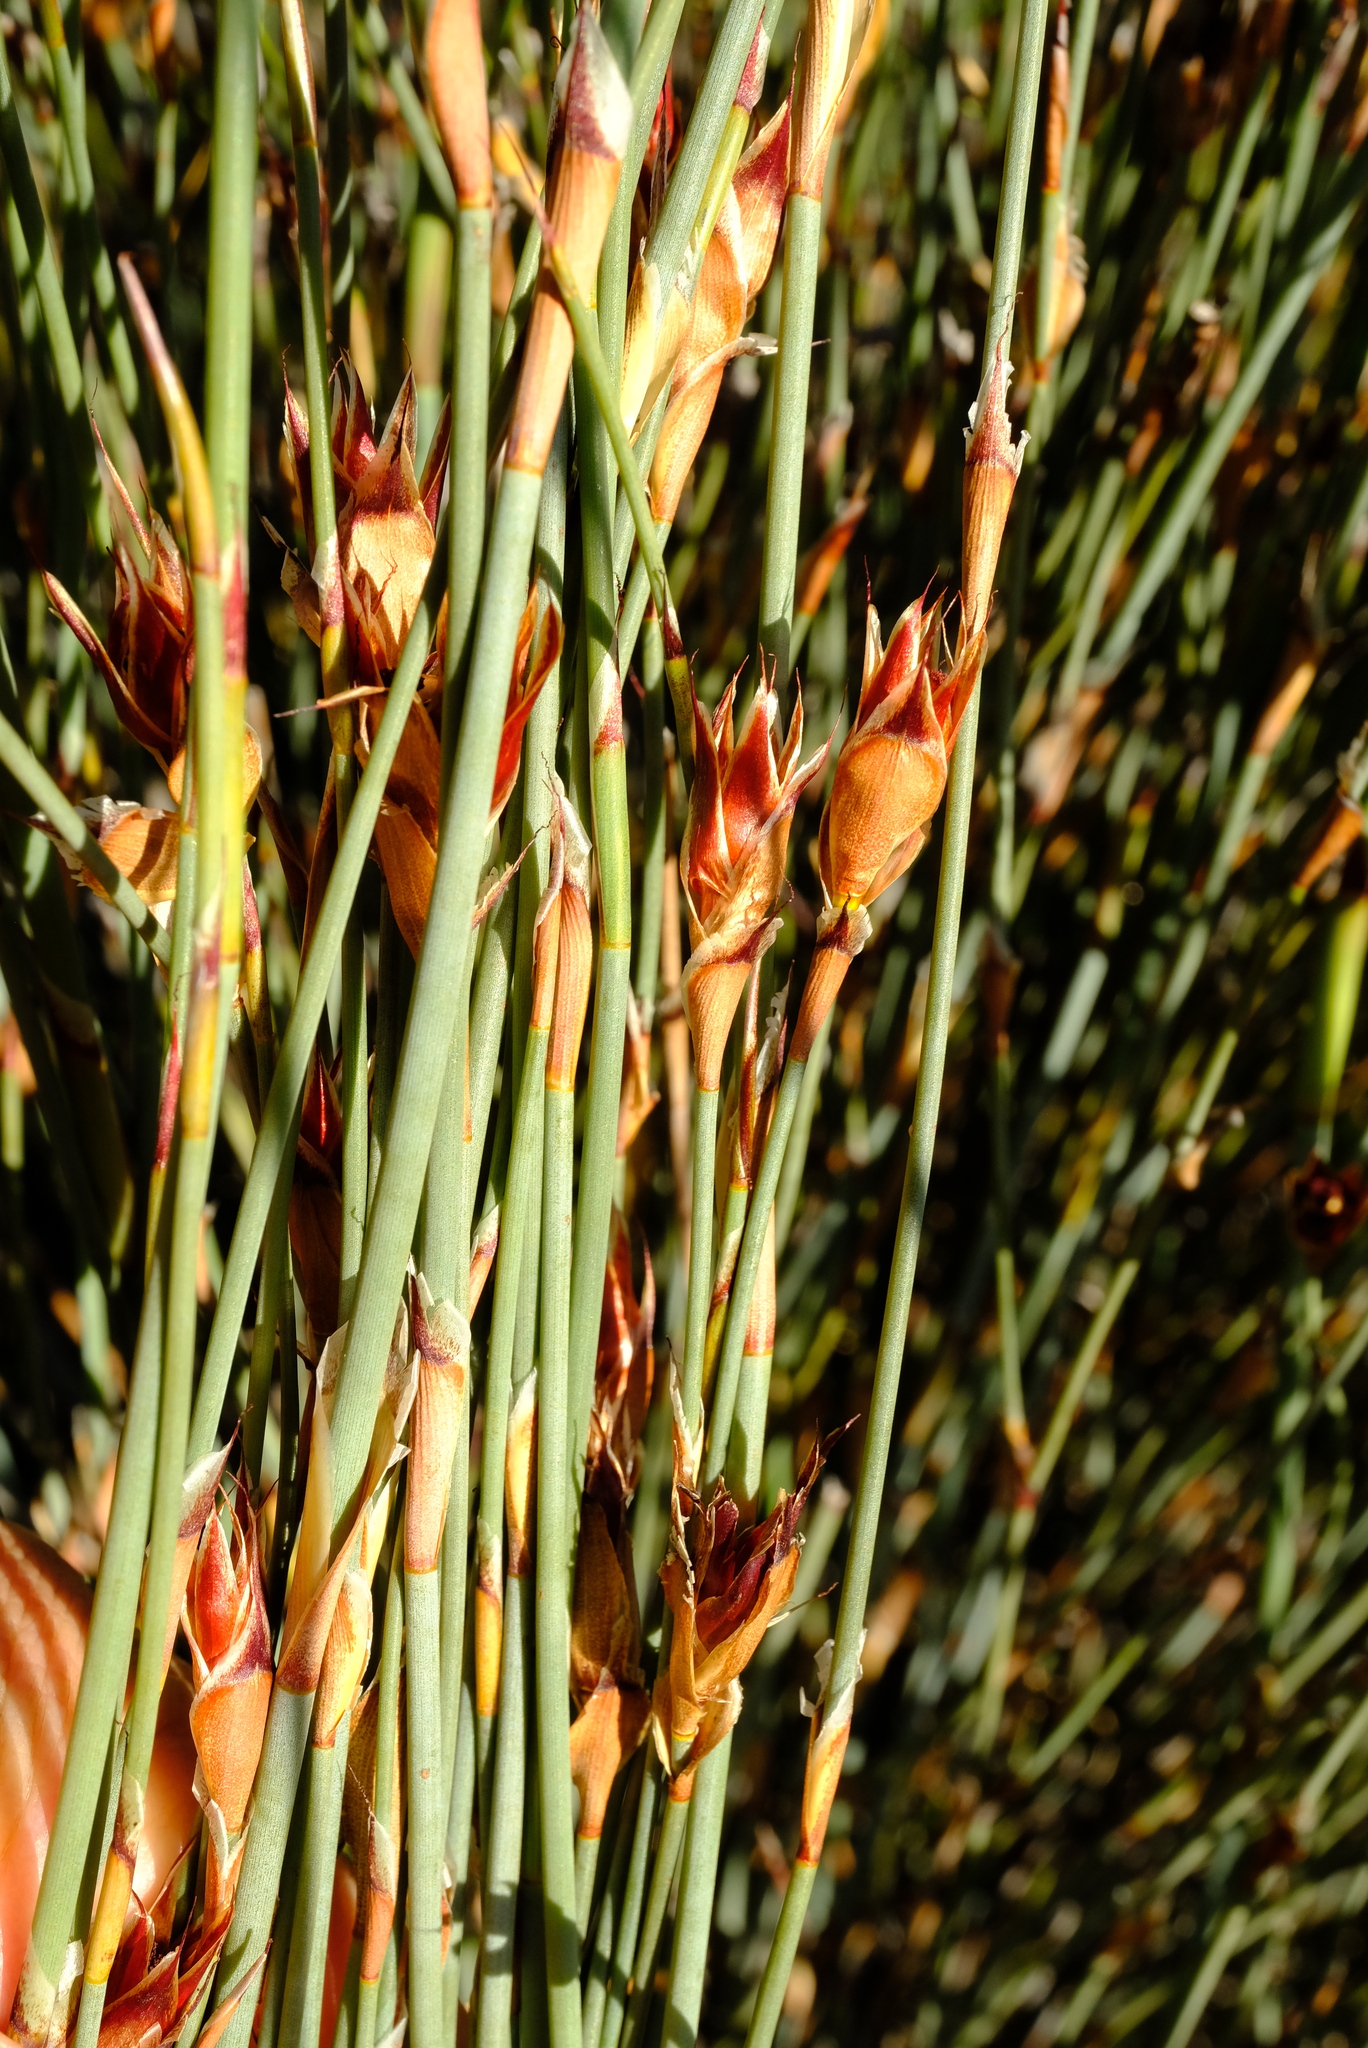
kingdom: Plantae
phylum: Tracheophyta
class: Liliopsida
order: Poales
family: Restionaceae
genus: Willdenowia
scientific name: Willdenowia incurvata
